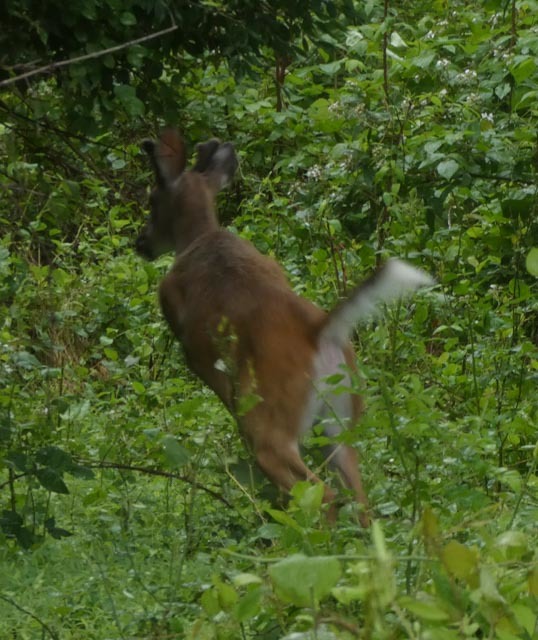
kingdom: Animalia
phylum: Chordata
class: Mammalia
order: Artiodactyla
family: Cervidae
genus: Odocoileus
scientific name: Odocoileus virginianus
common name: White-tailed deer
